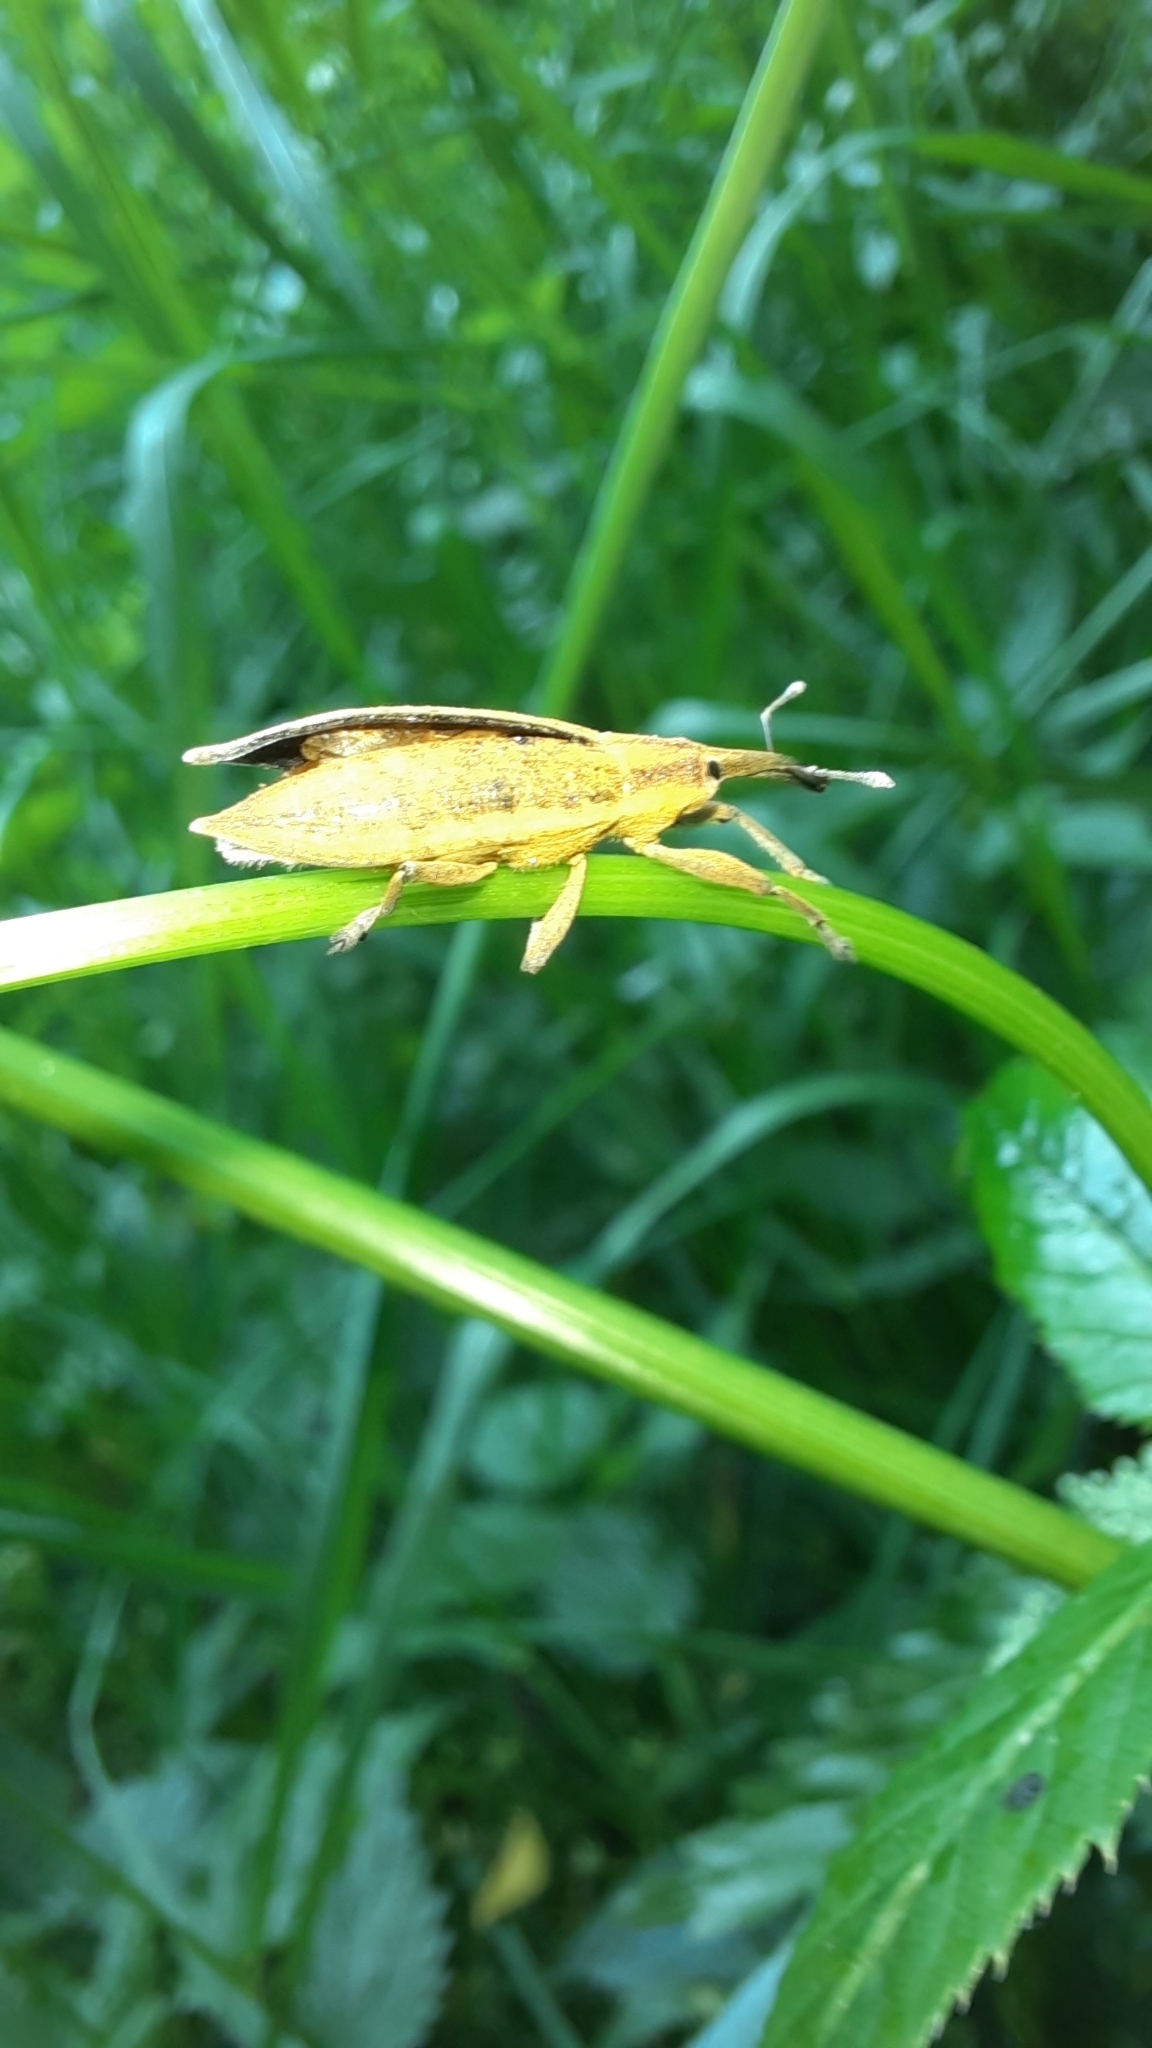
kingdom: Animalia
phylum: Arthropoda
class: Insecta
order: Coleoptera
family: Curculionidae
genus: Lixus
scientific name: Lixus iridis
